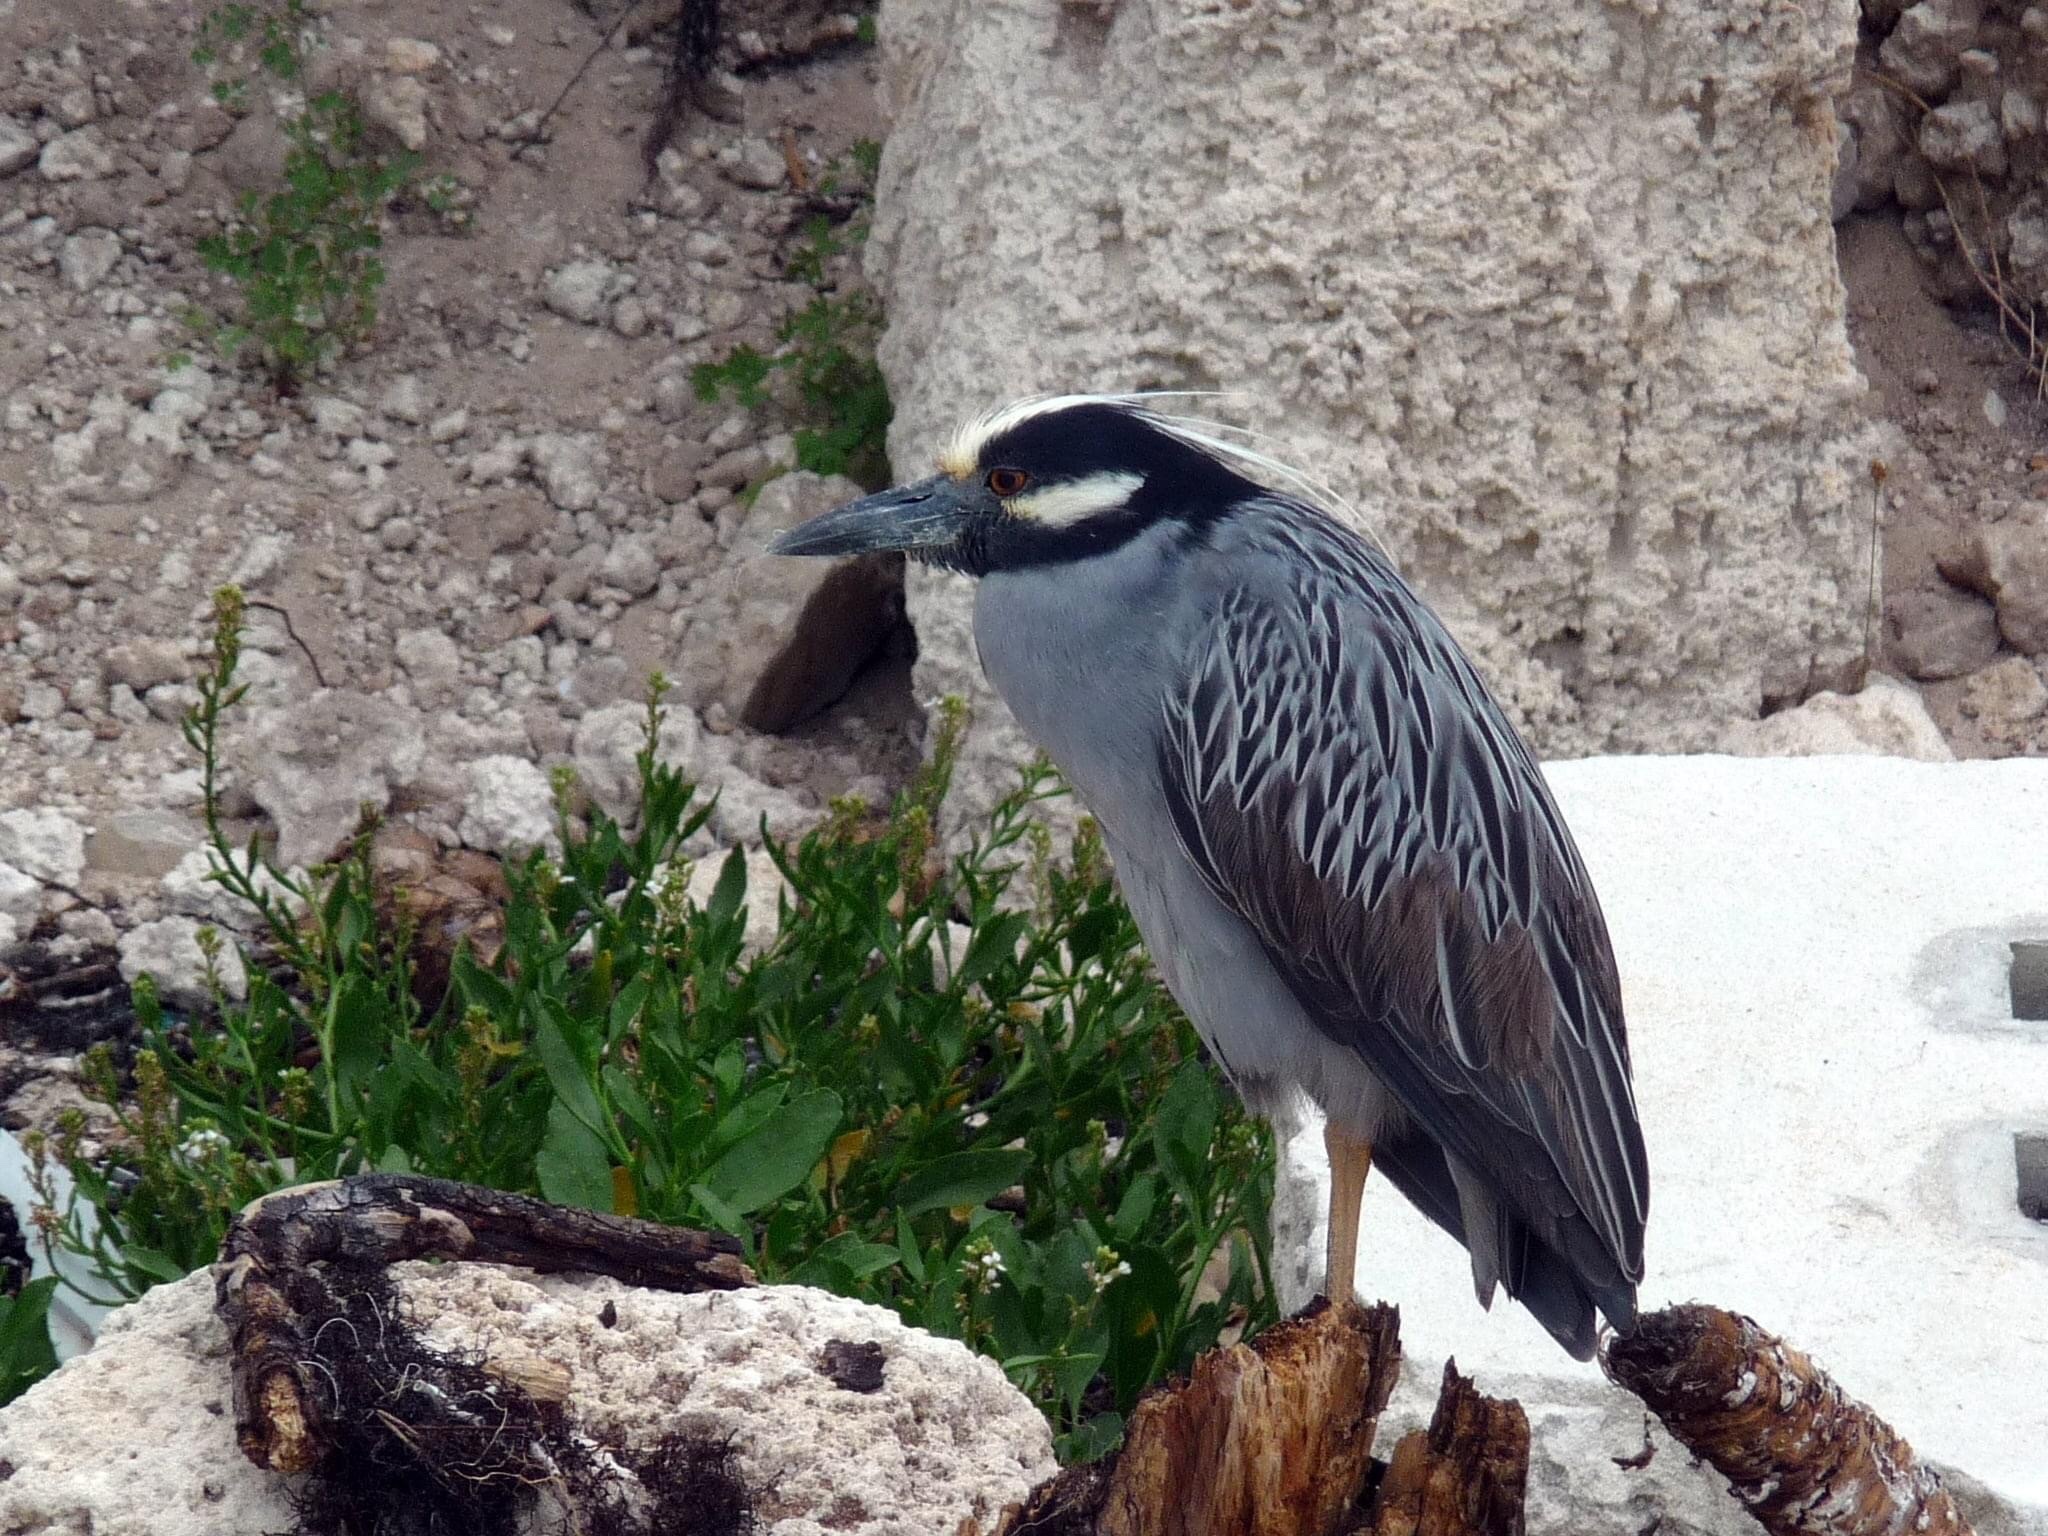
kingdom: Animalia
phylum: Chordata
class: Aves
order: Pelecaniformes
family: Ardeidae
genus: Nyctanassa
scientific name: Nyctanassa violacea
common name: Yellow-crowned night heron
